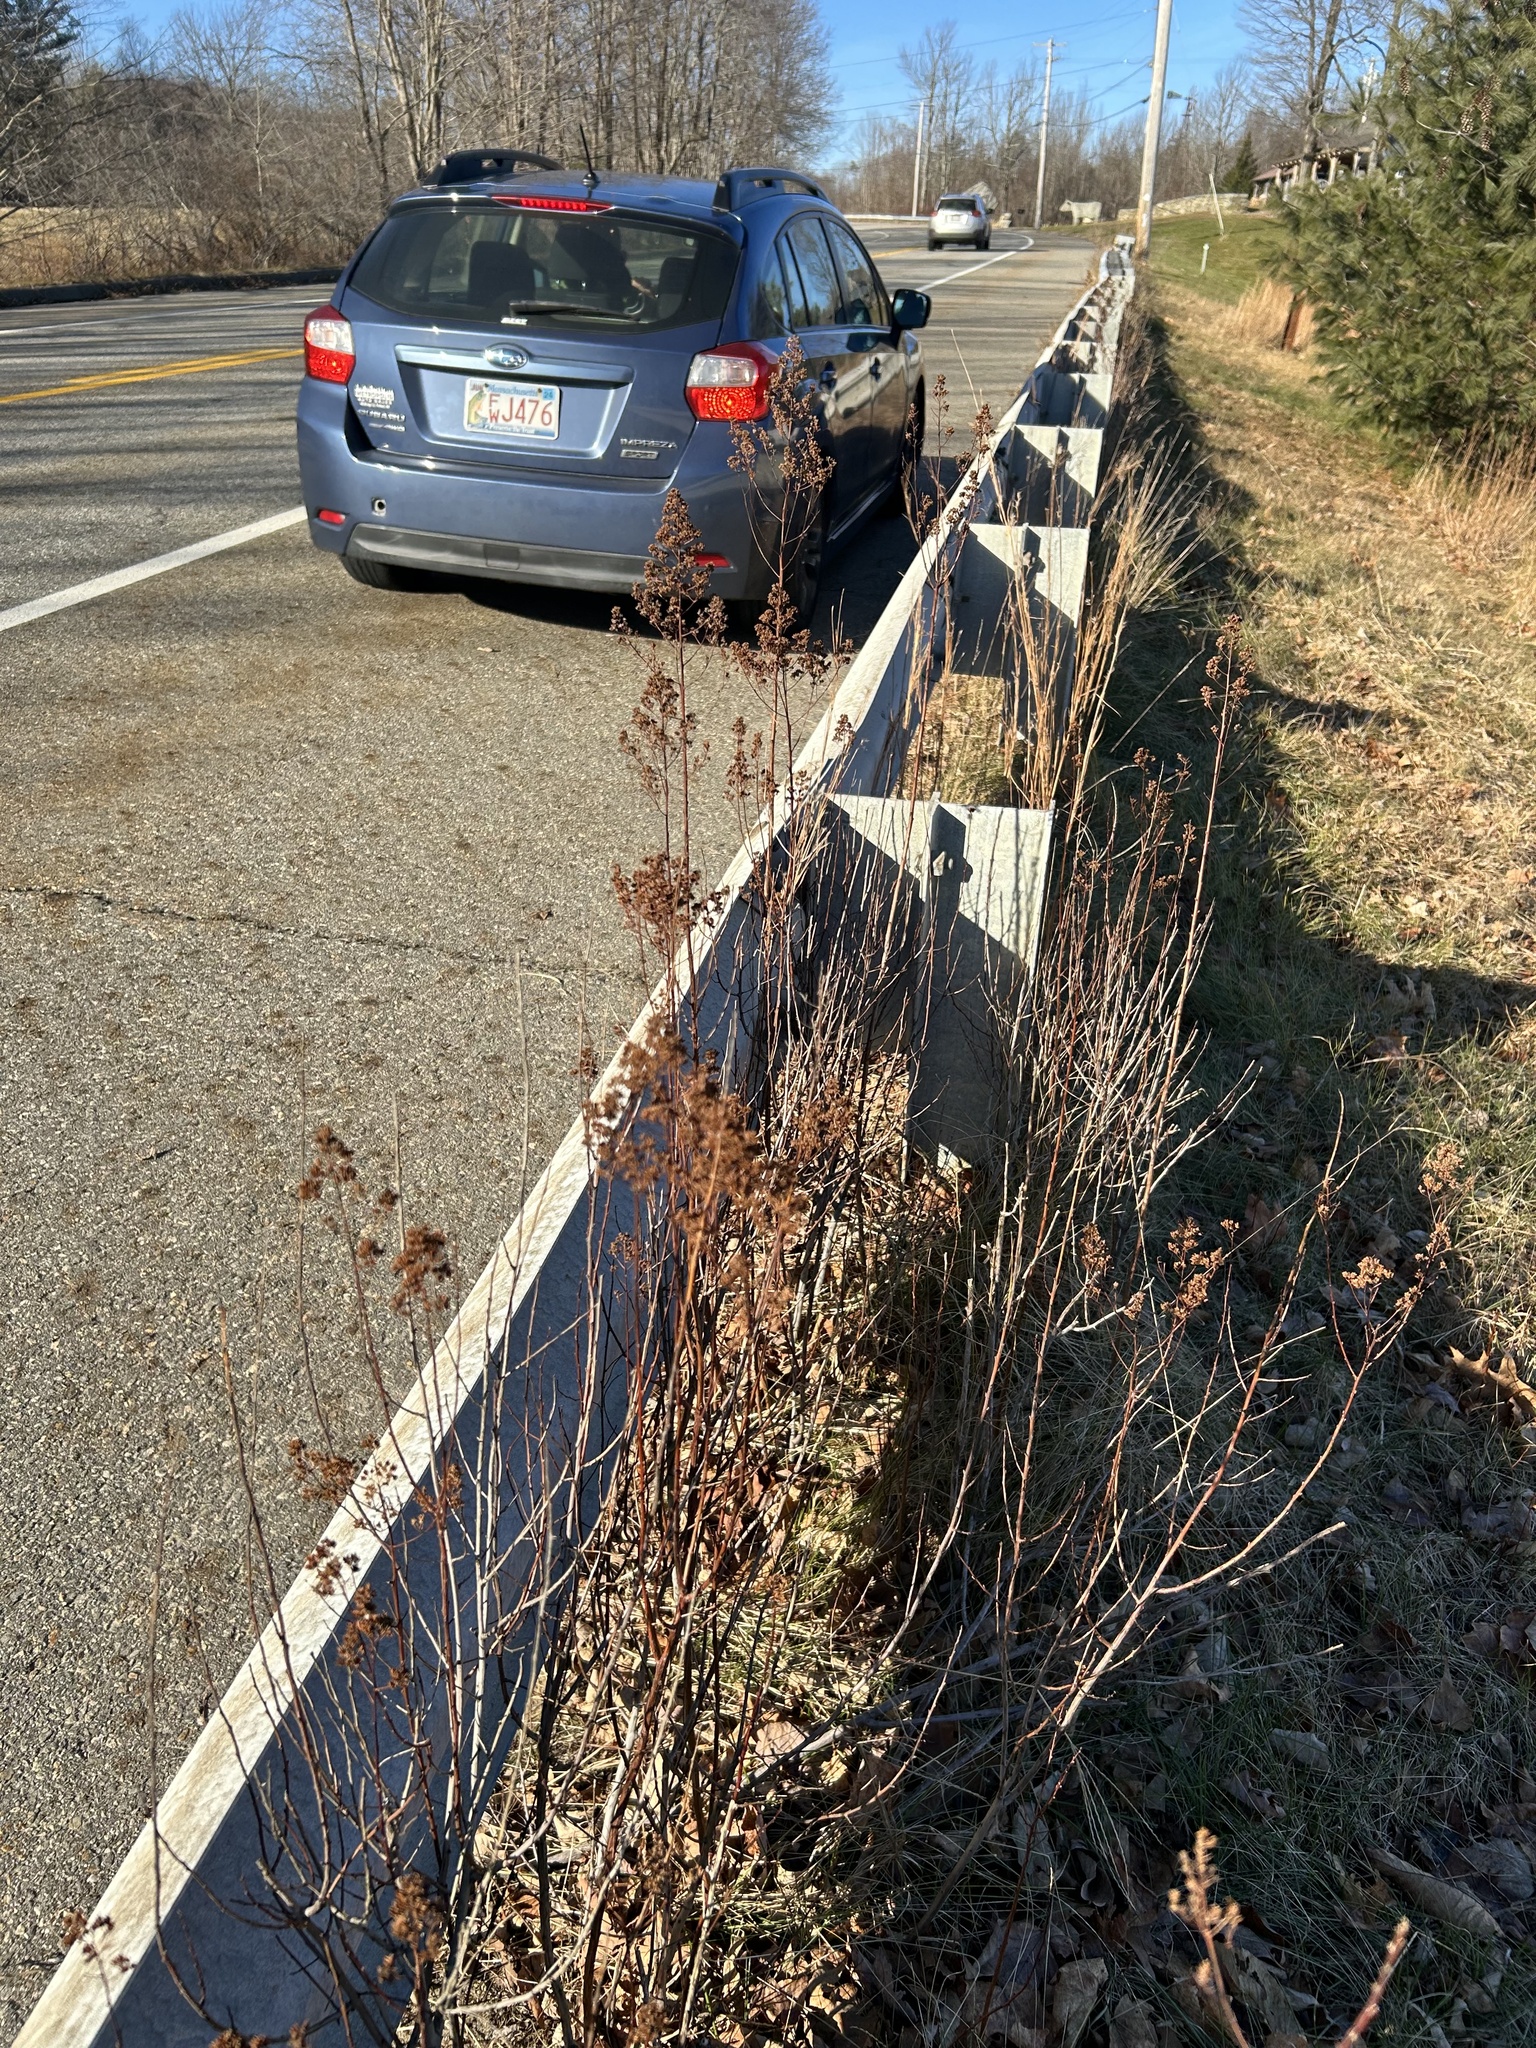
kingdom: Plantae
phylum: Tracheophyta
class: Magnoliopsida
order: Rosales
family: Rosaceae
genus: Spiraea
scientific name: Spiraea alba
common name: Pale bridewort
